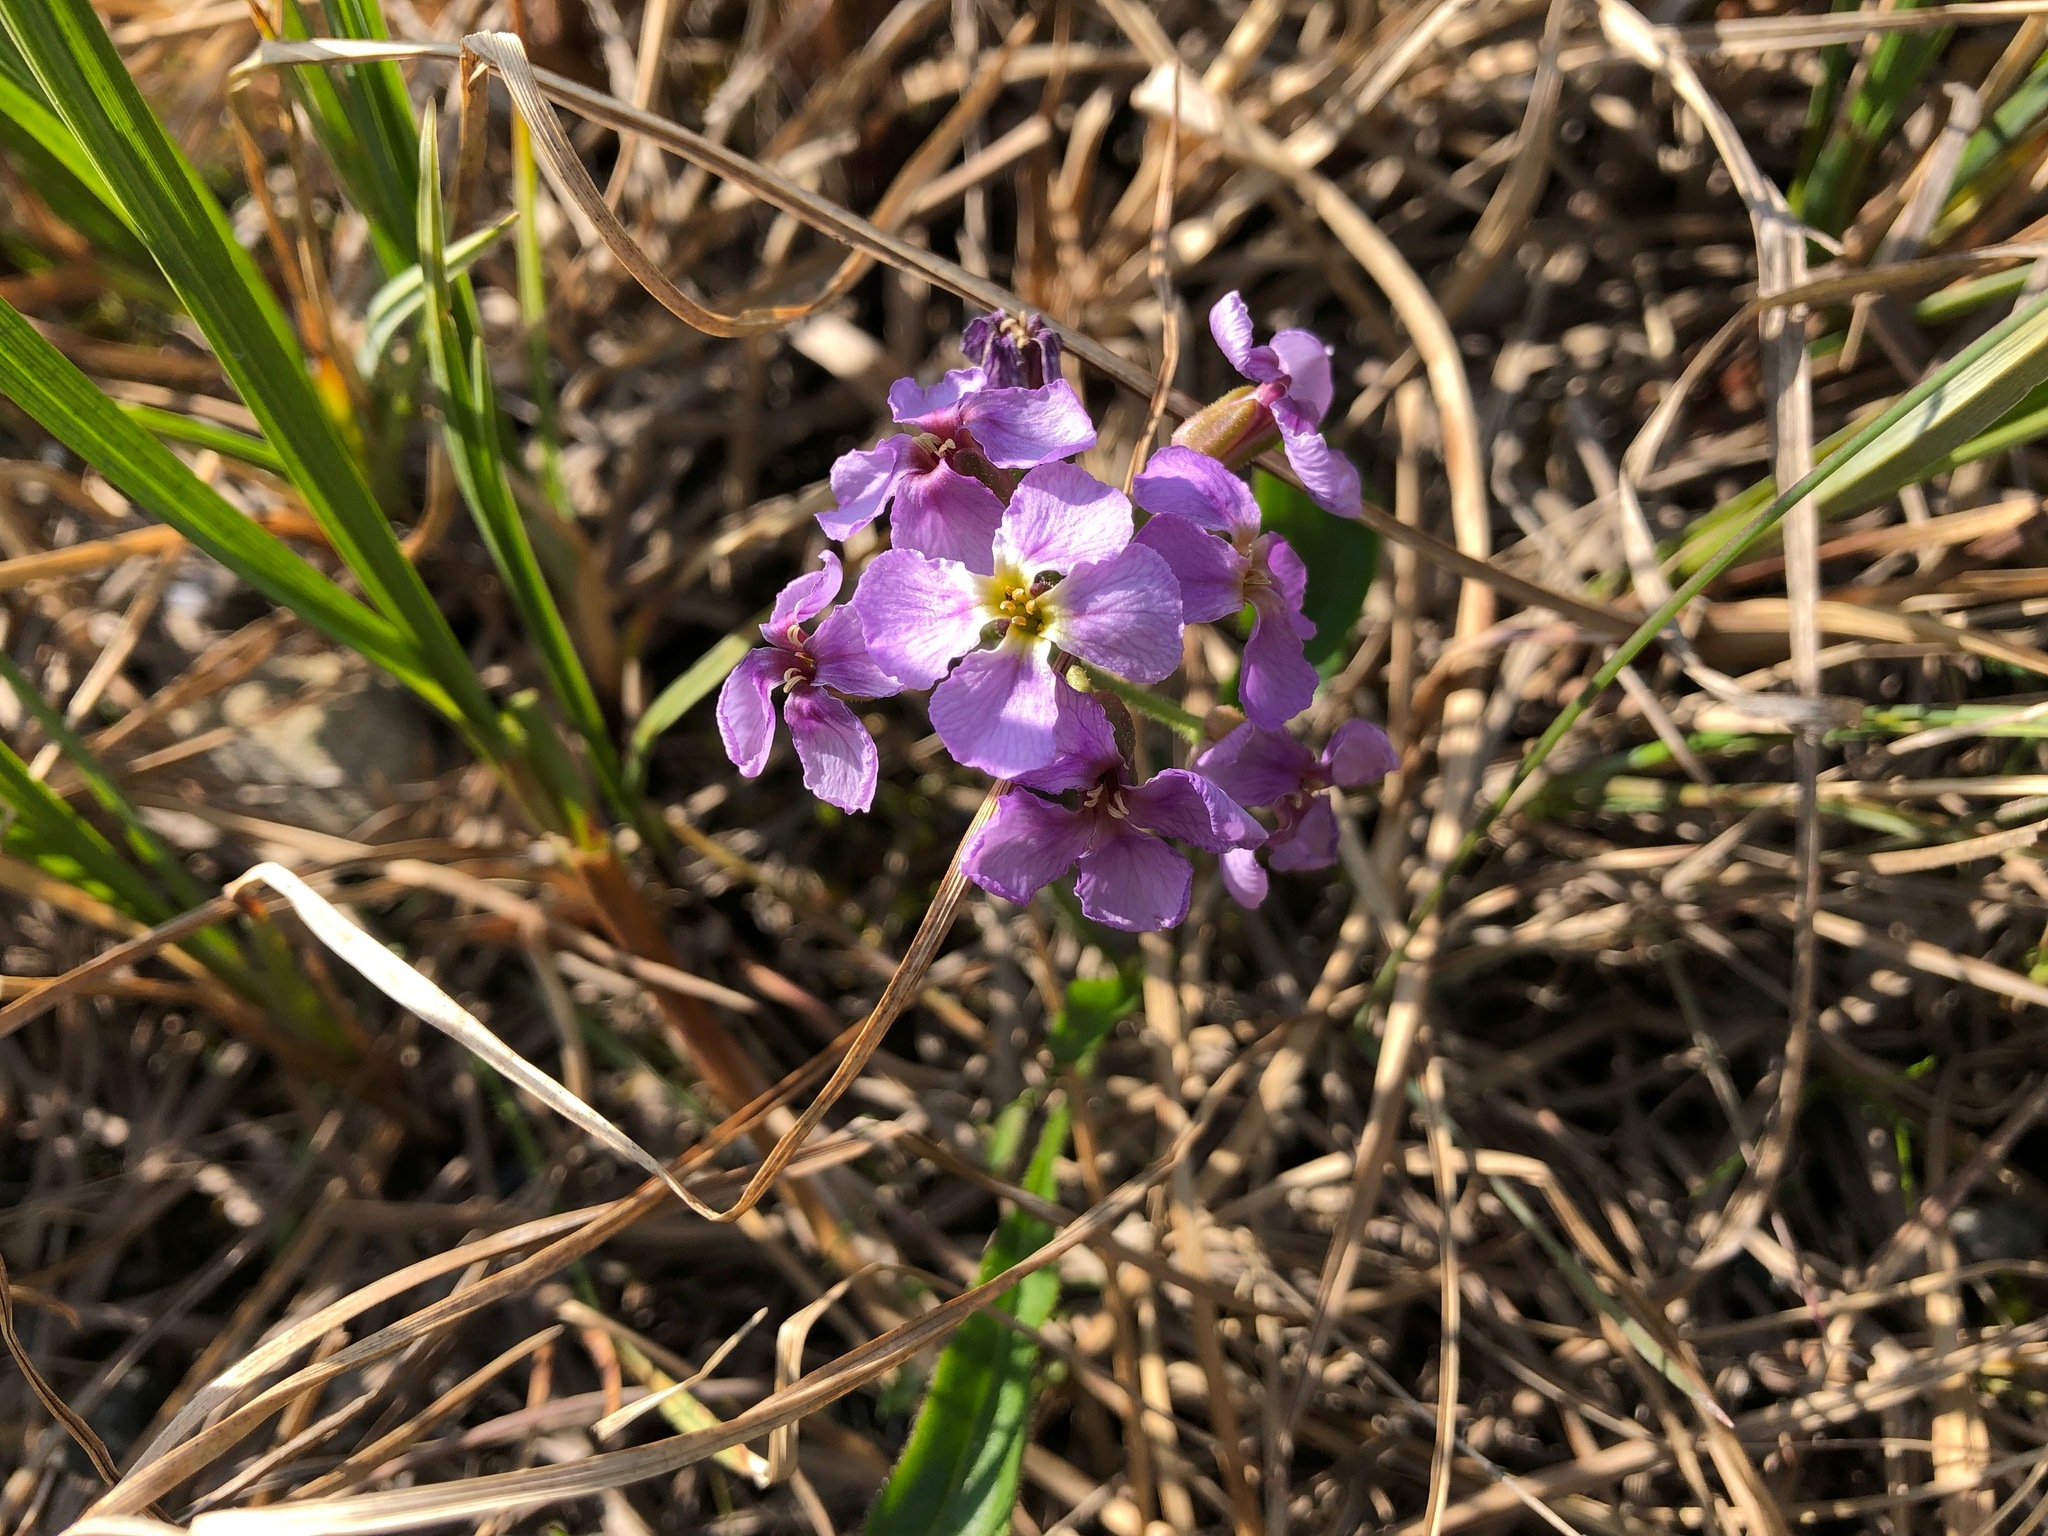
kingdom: Plantae
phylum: Tracheophyta
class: Magnoliopsida
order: Brassicales
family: Brassicaceae
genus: Parrya
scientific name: Parrya nudicaulis
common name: Naked-stemmed false wallflower
